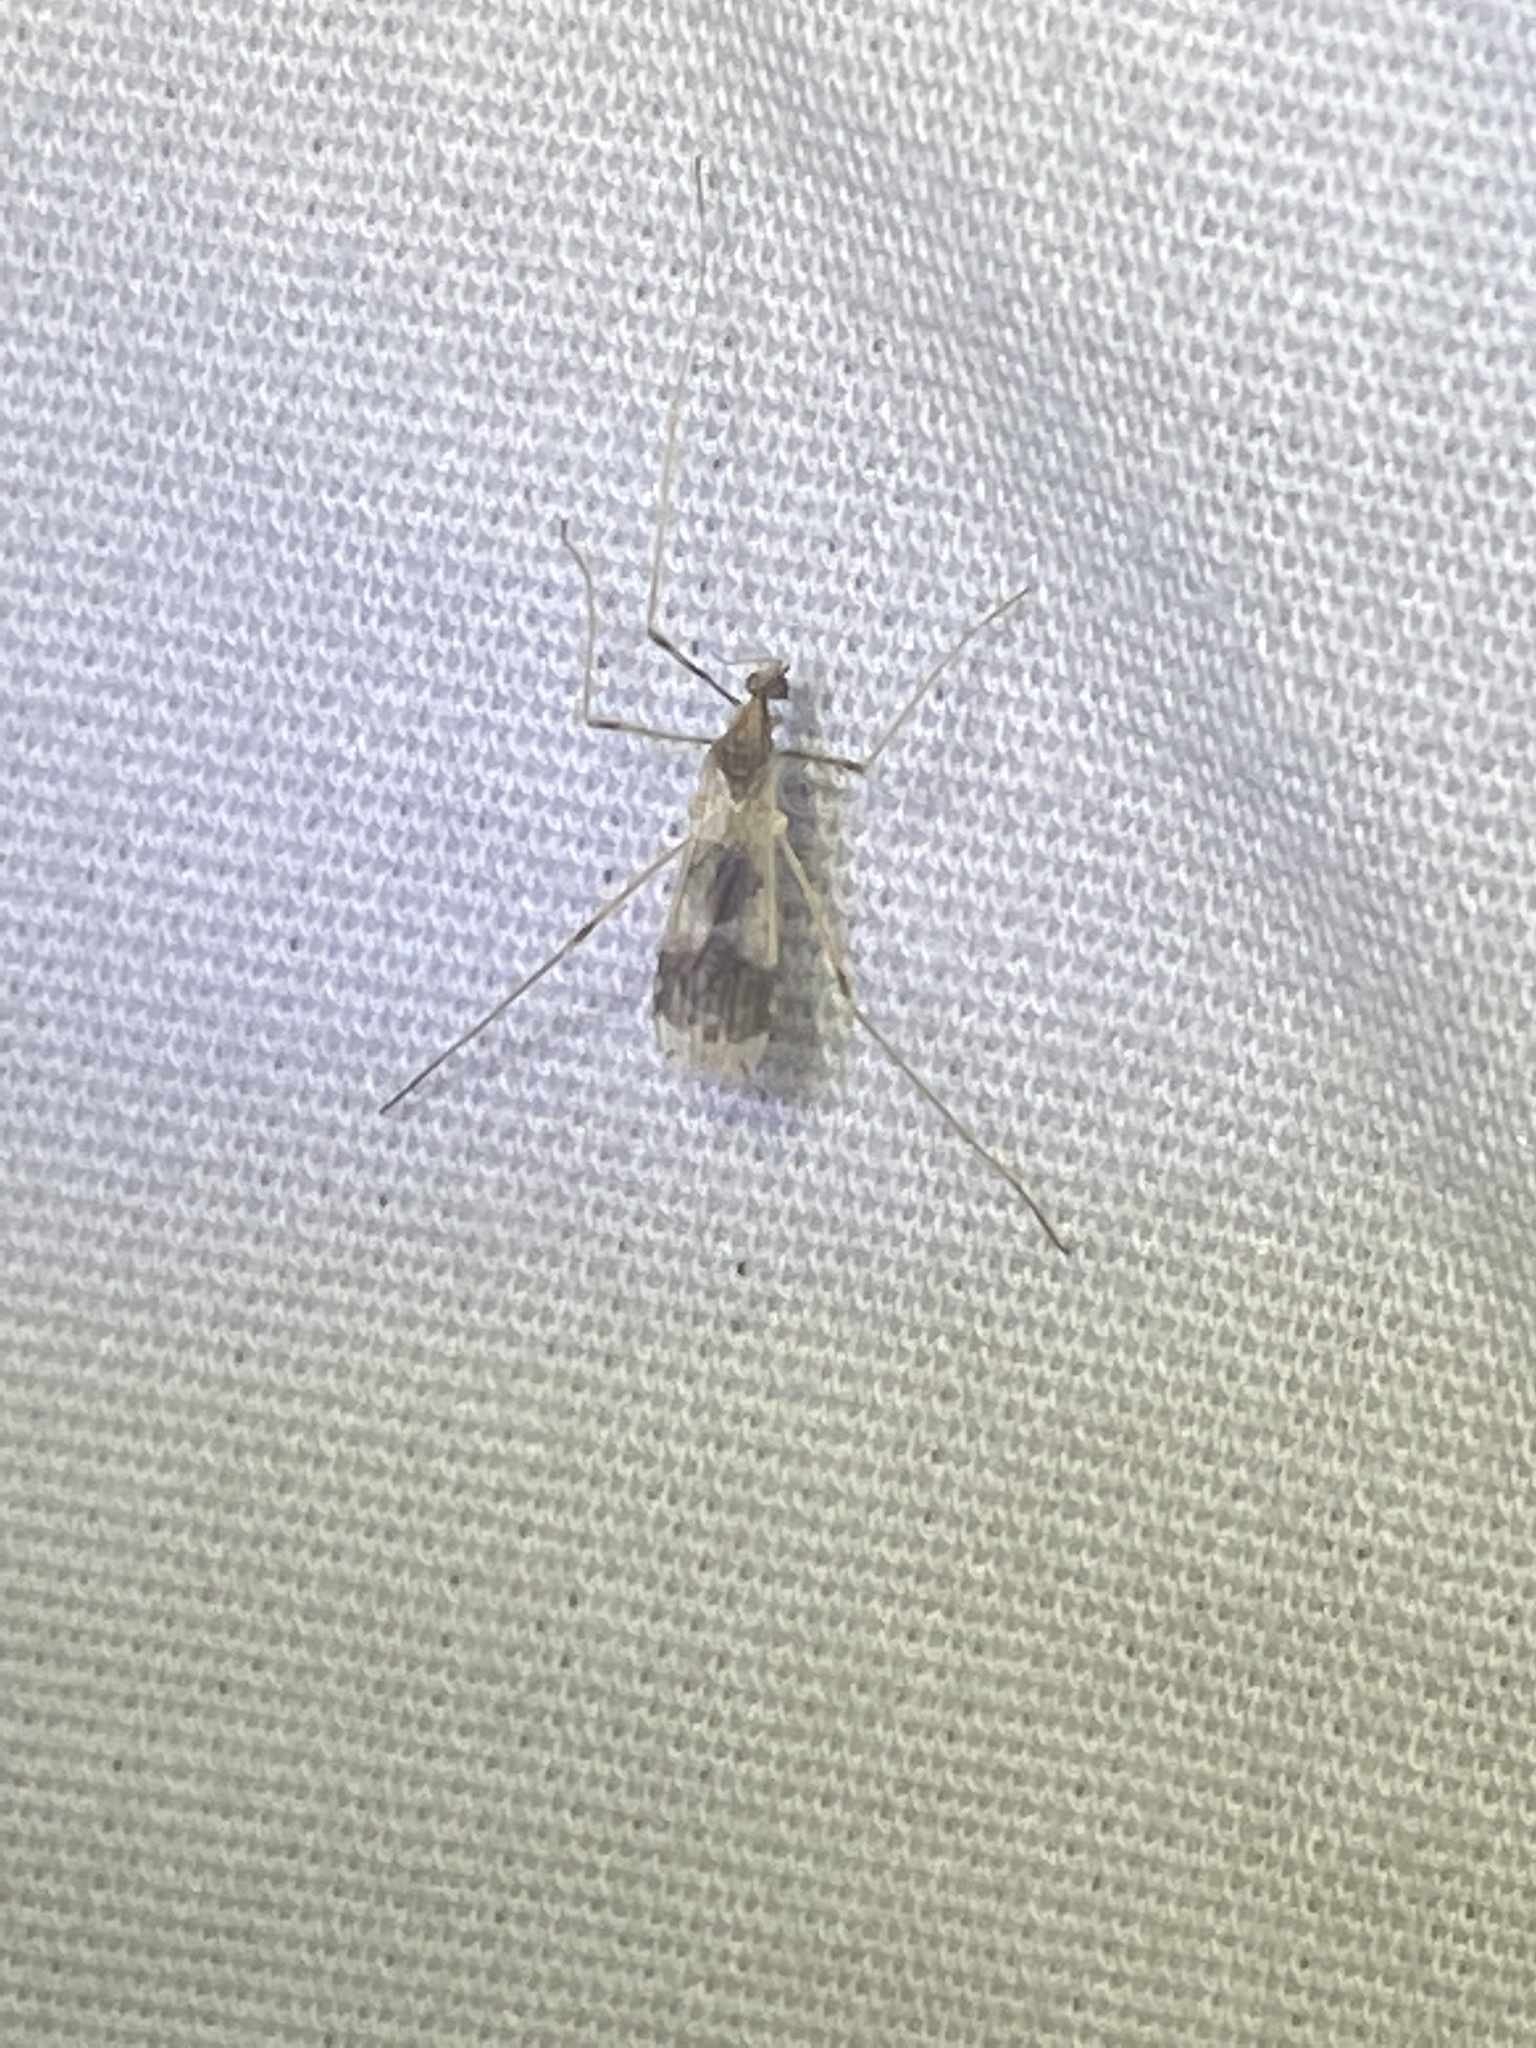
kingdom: Animalia
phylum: Arthropoda
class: Insecta
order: Diptera
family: Limoniidae
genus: Ilisia
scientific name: Ilisia venusta
